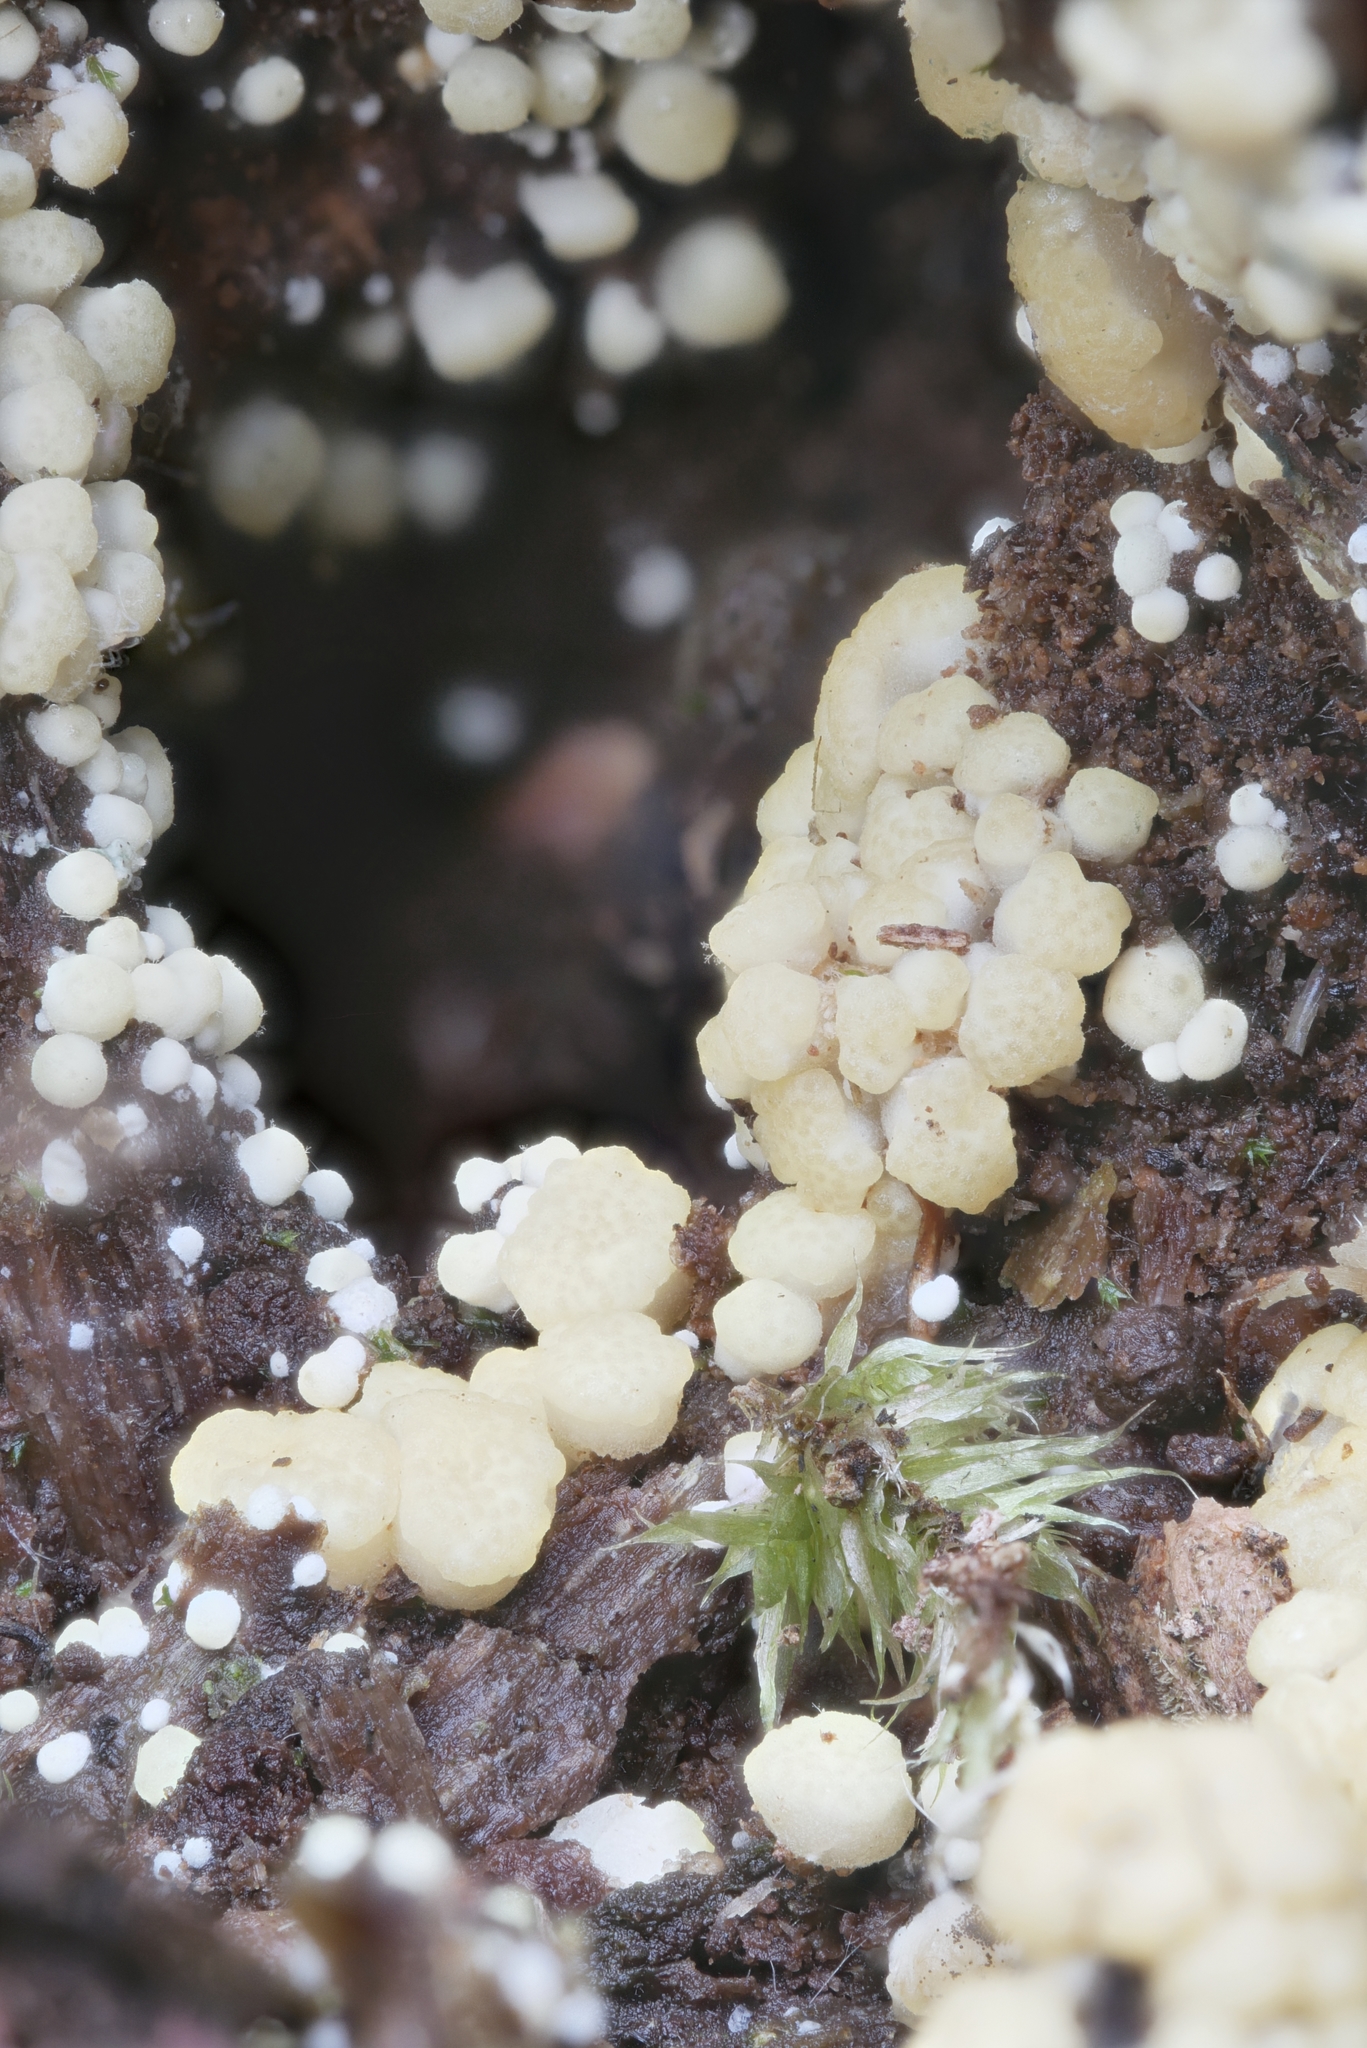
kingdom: Fungi
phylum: Ascomycota
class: Sordariomycetes
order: Hypocreales
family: Hypocreaceae
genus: Trichoderma
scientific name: Trichoderma sinuosum
